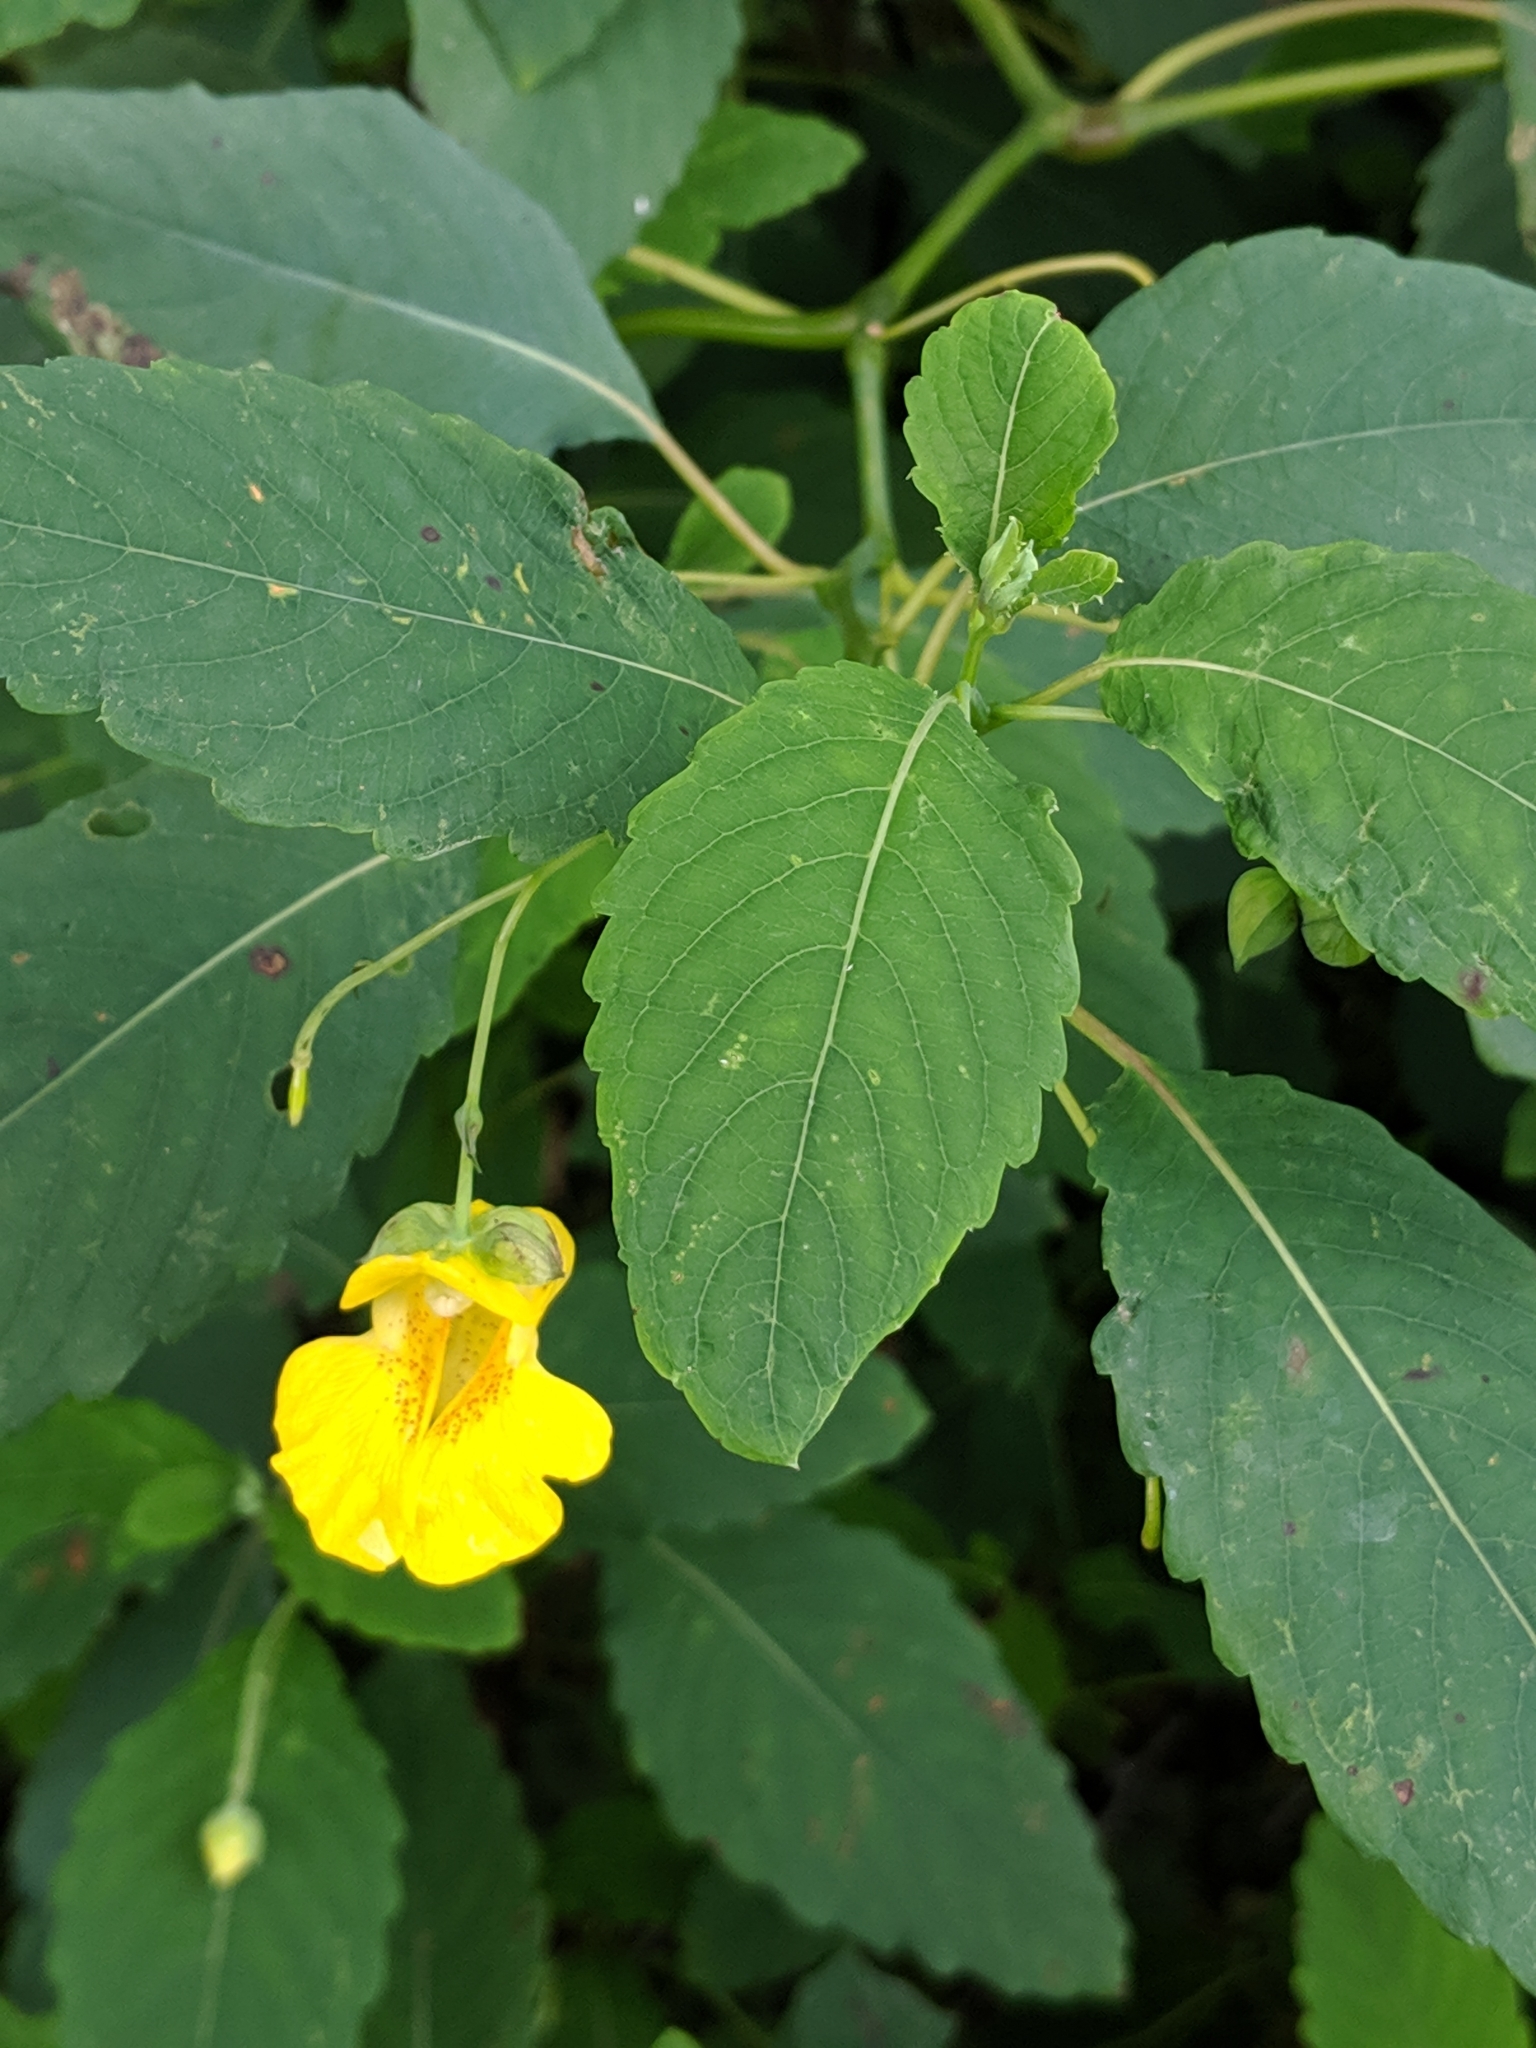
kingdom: Plantae
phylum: Tracheophyta
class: Magnoliopsida
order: Ericales
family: Balsaminaceae
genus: Impatiens
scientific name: Impatiens pallida
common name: Pale snapweed
